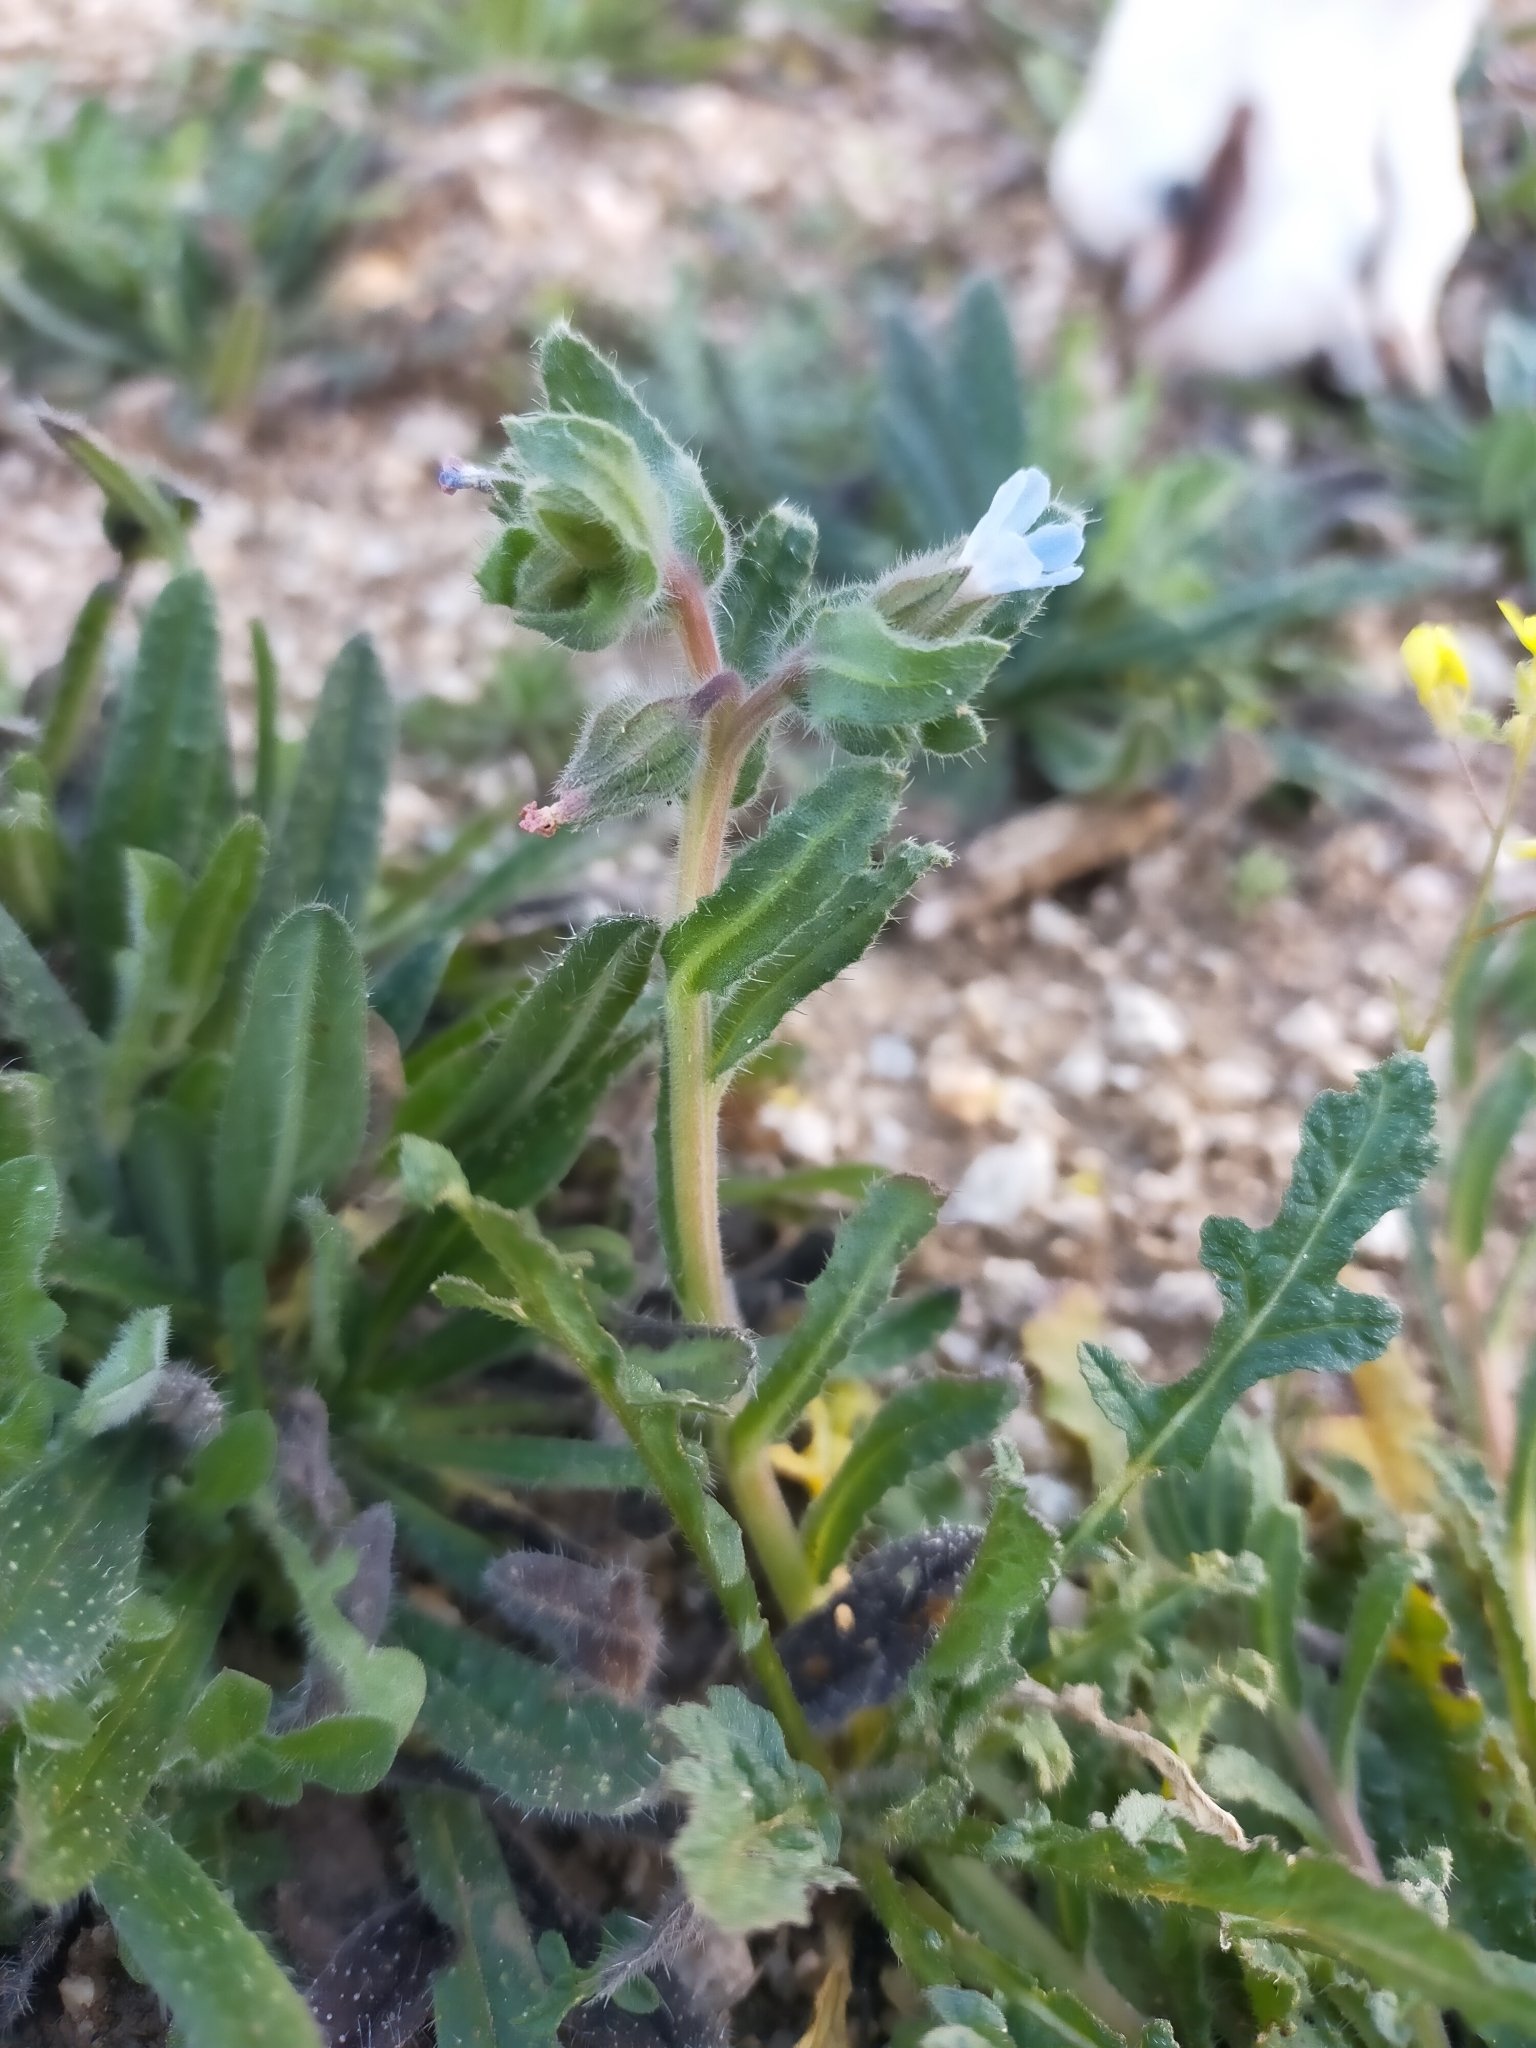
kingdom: Plantae
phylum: Tracheophyta
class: Magnoliopsida
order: Boraginales
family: Boraginaceae
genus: Nonea
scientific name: Nonea micrantha
